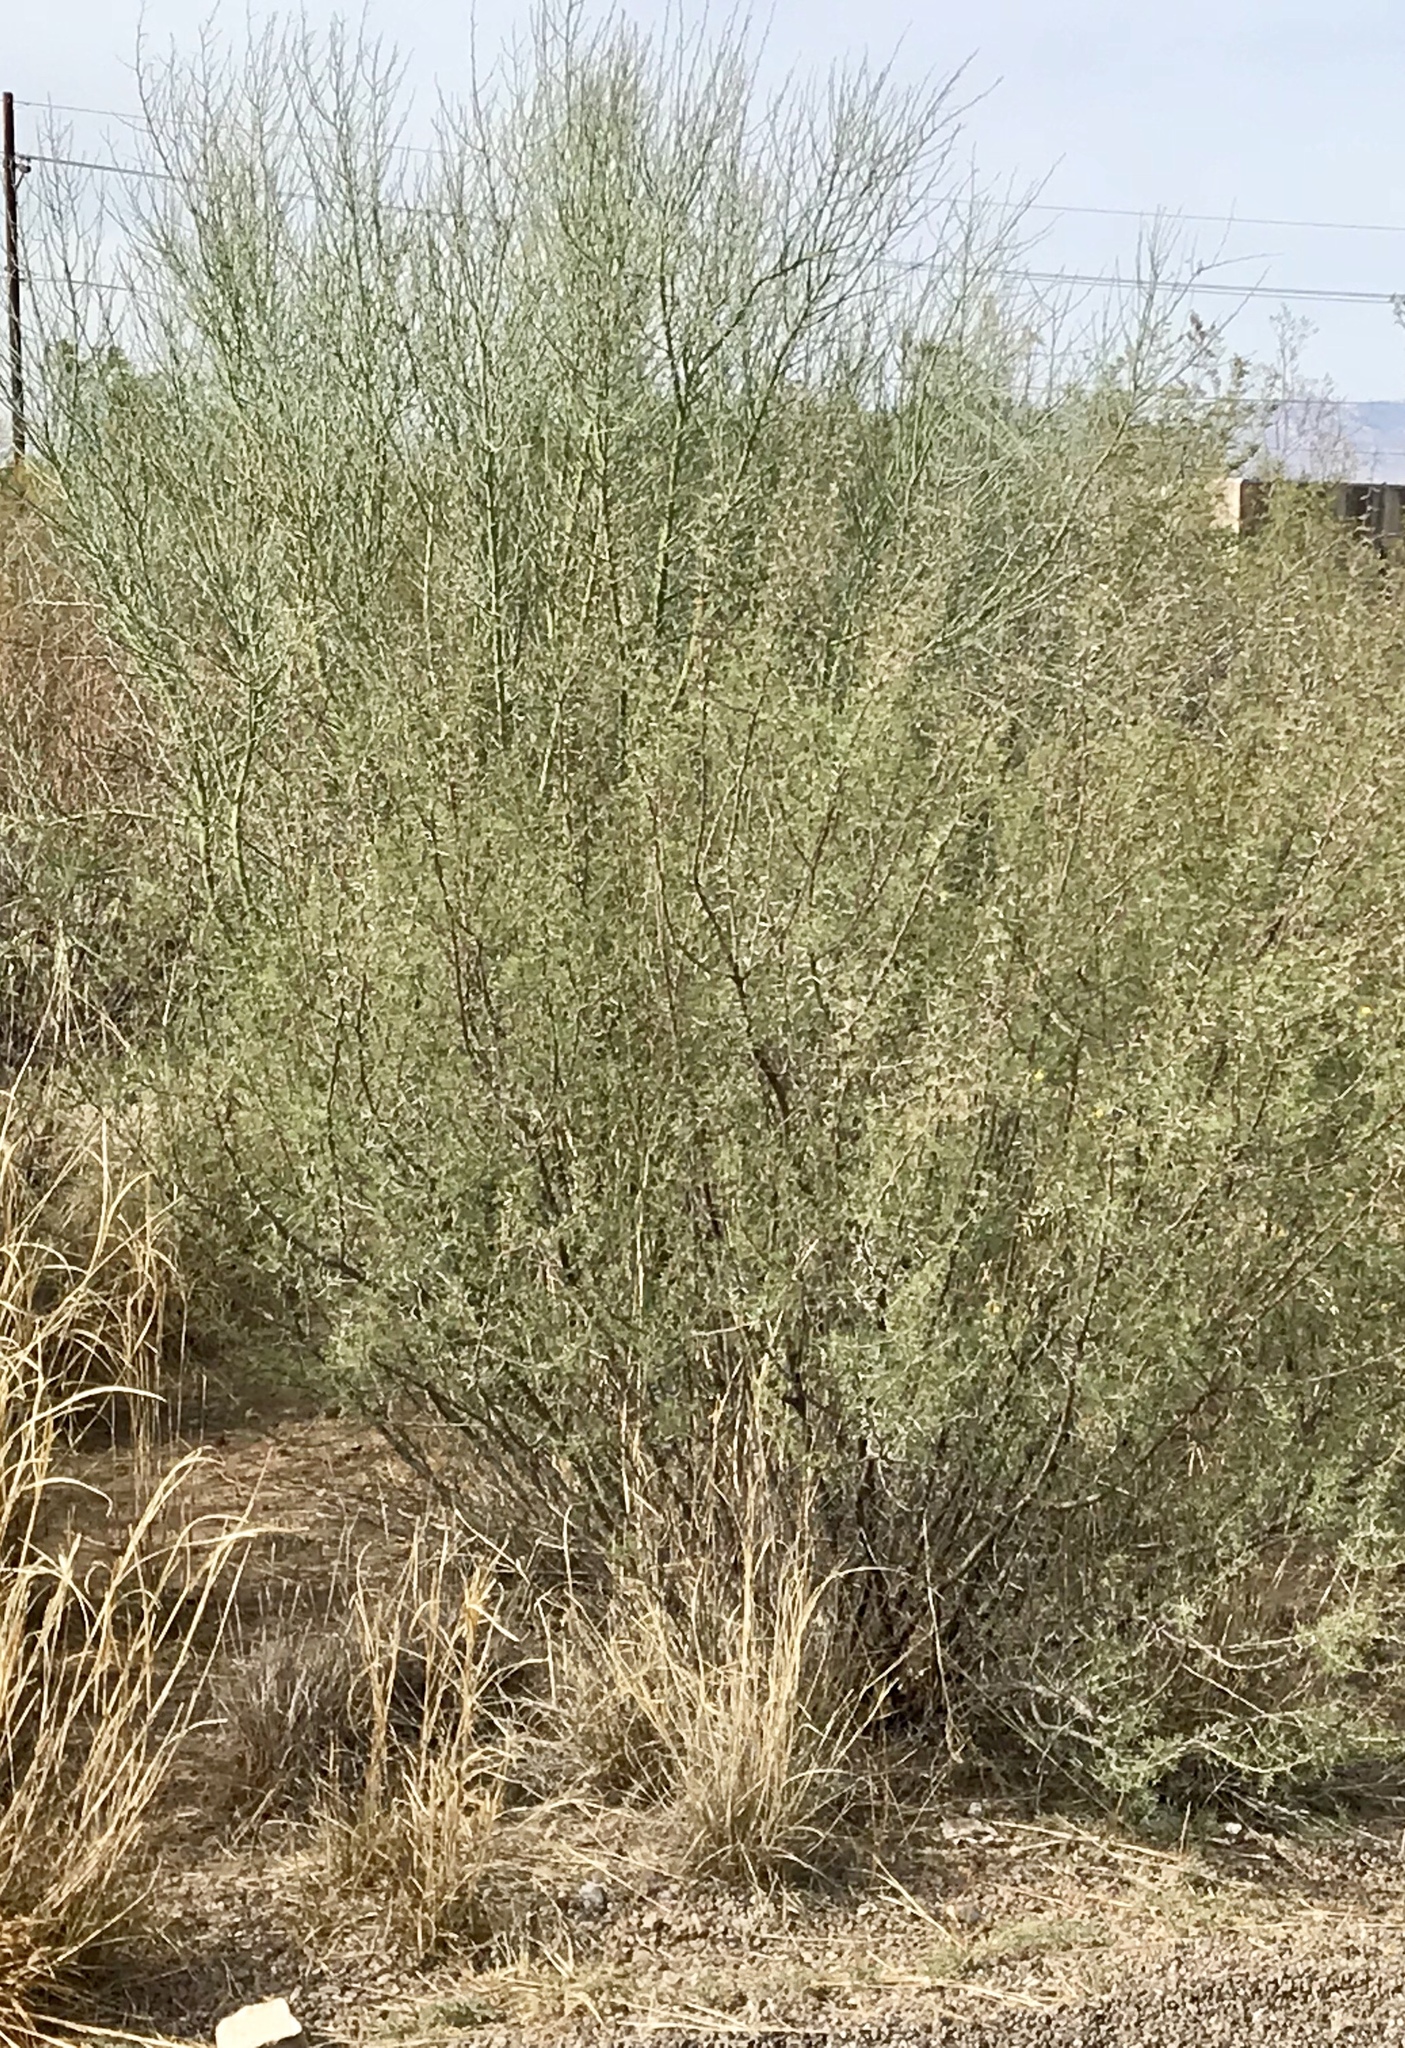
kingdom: Plantae
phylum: Tracheophyta
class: Magnoliopsida
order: Fabales
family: Fabaceae
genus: Parkinsonia
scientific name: Parkinsonia florida
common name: Blue paloverde
